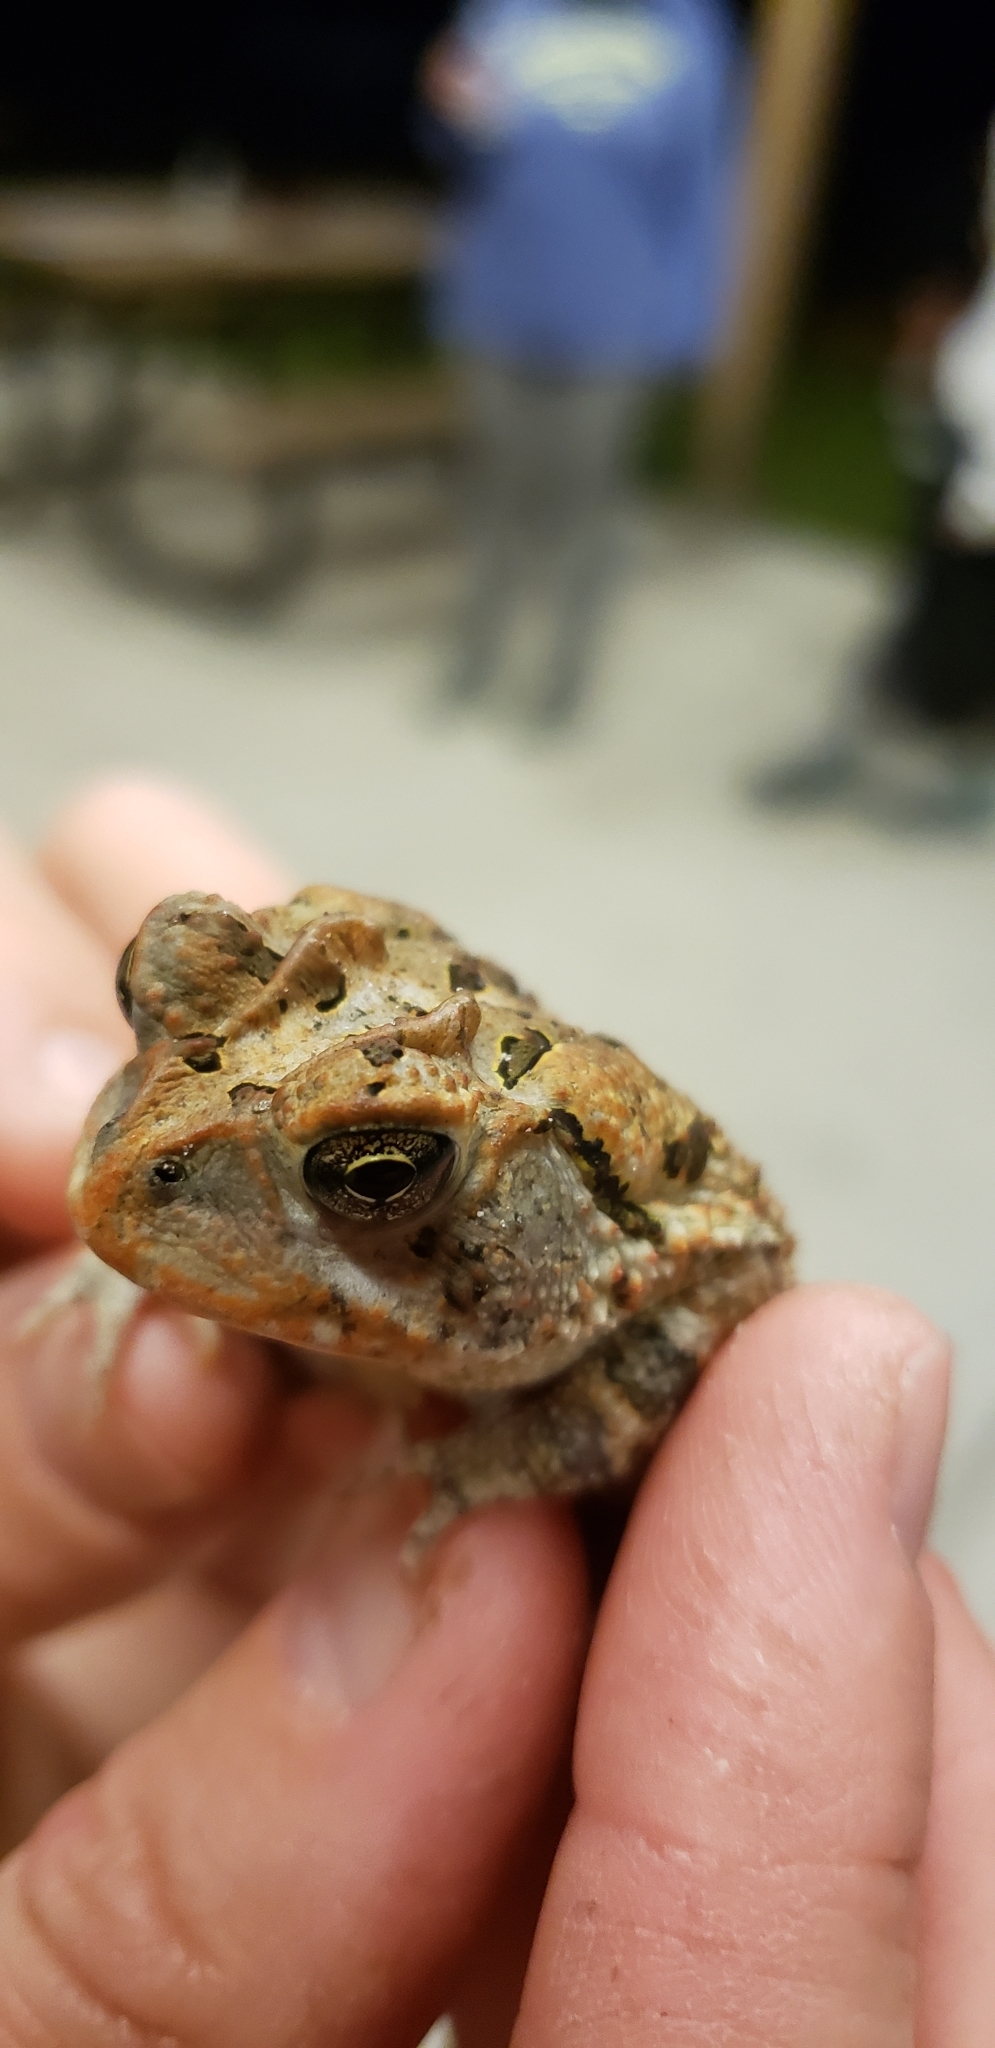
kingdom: Animalia
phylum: Chordata
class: Amphibia
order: Anura
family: Bufonidae
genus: Anaxyrus
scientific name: Anaxyrus terrestris
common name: Southern toad
